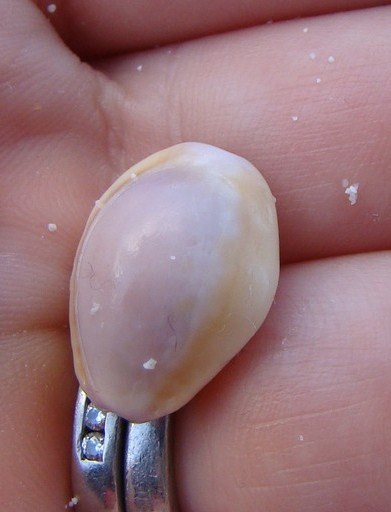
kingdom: Animalia
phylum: Mollusca
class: Gastropoda
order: Littorinimorpha
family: Cypraeidae
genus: Monetaria
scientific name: Monetaria annulus
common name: Ring cowrie
